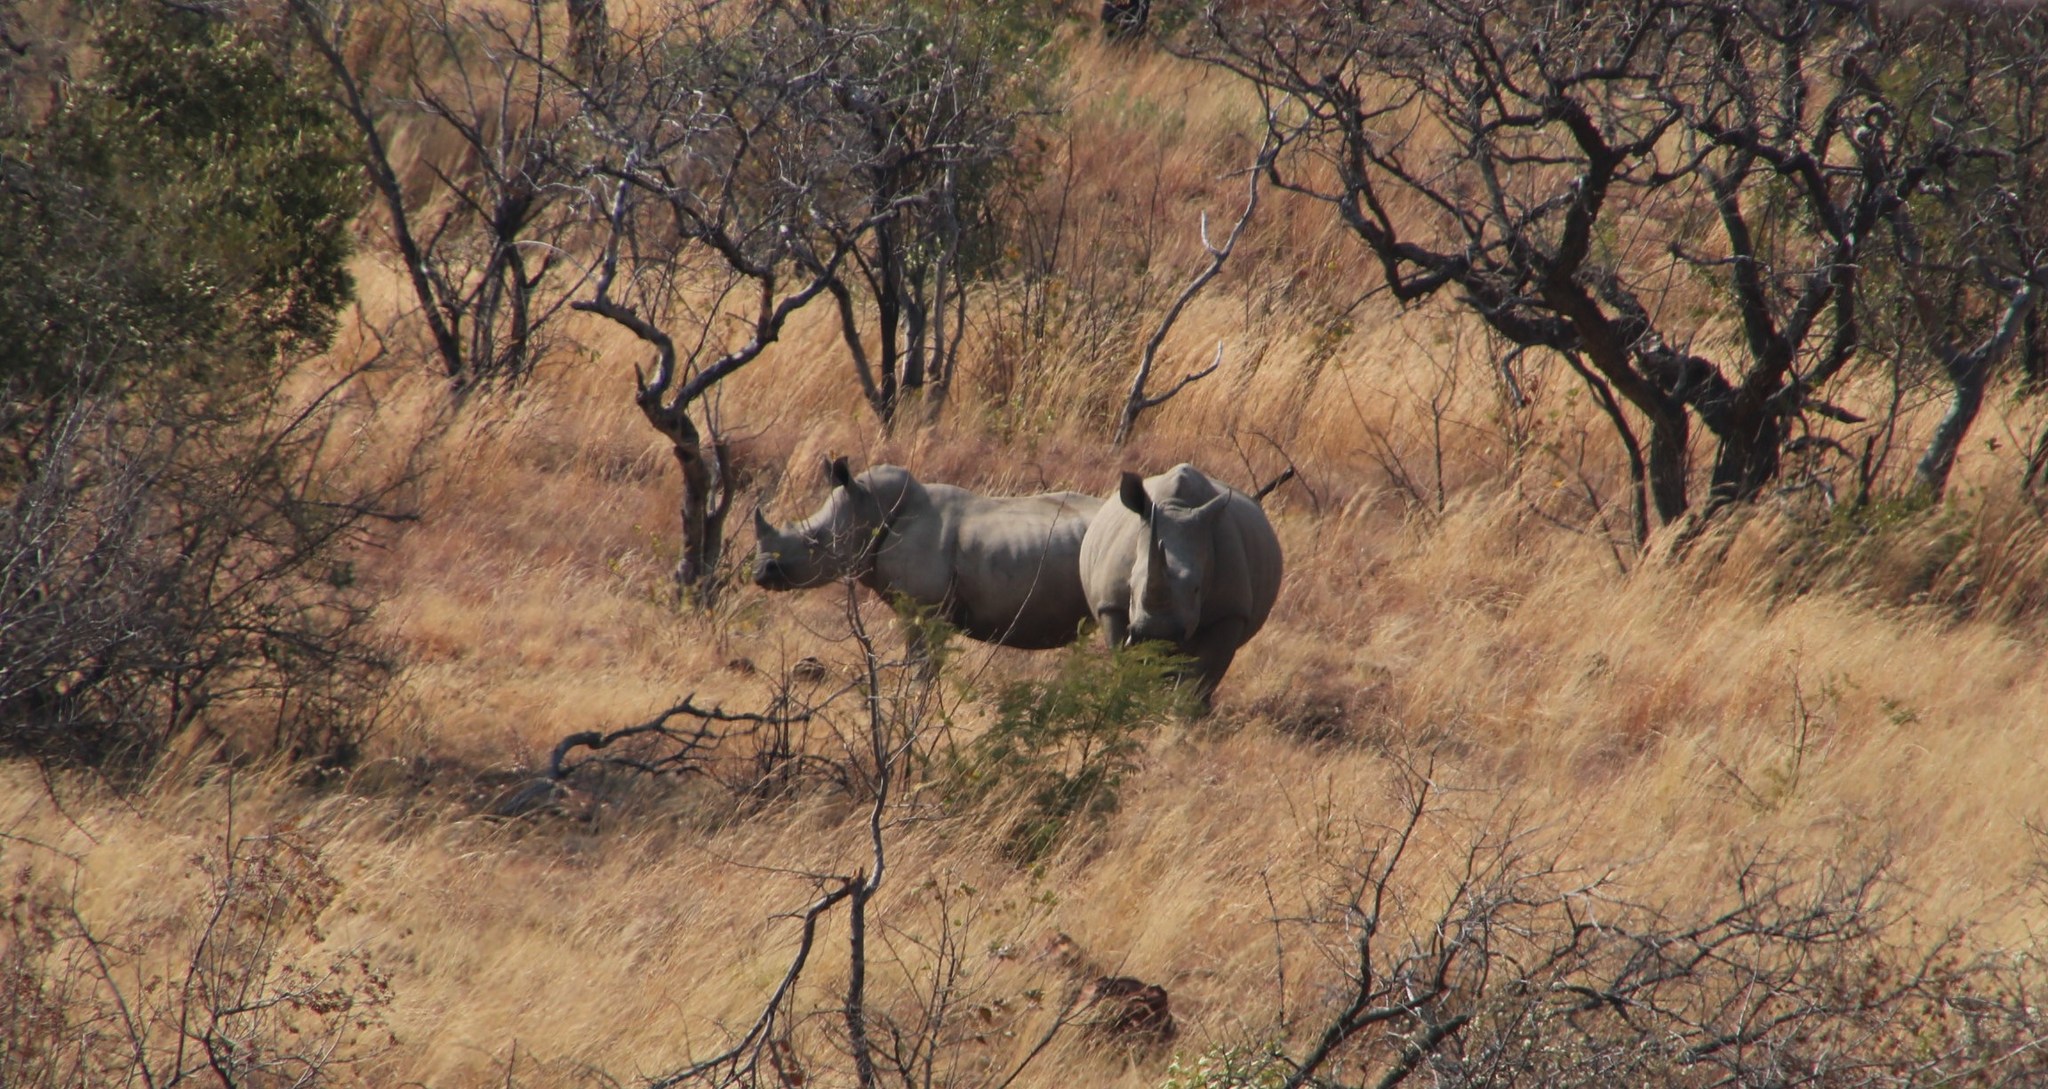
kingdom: Animalia
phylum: Chordata
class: Mammalia
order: Perissodactyla
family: Rhinocerotidae
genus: Ceratotherium
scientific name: Ceratotherium simum
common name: White rhinoceros
